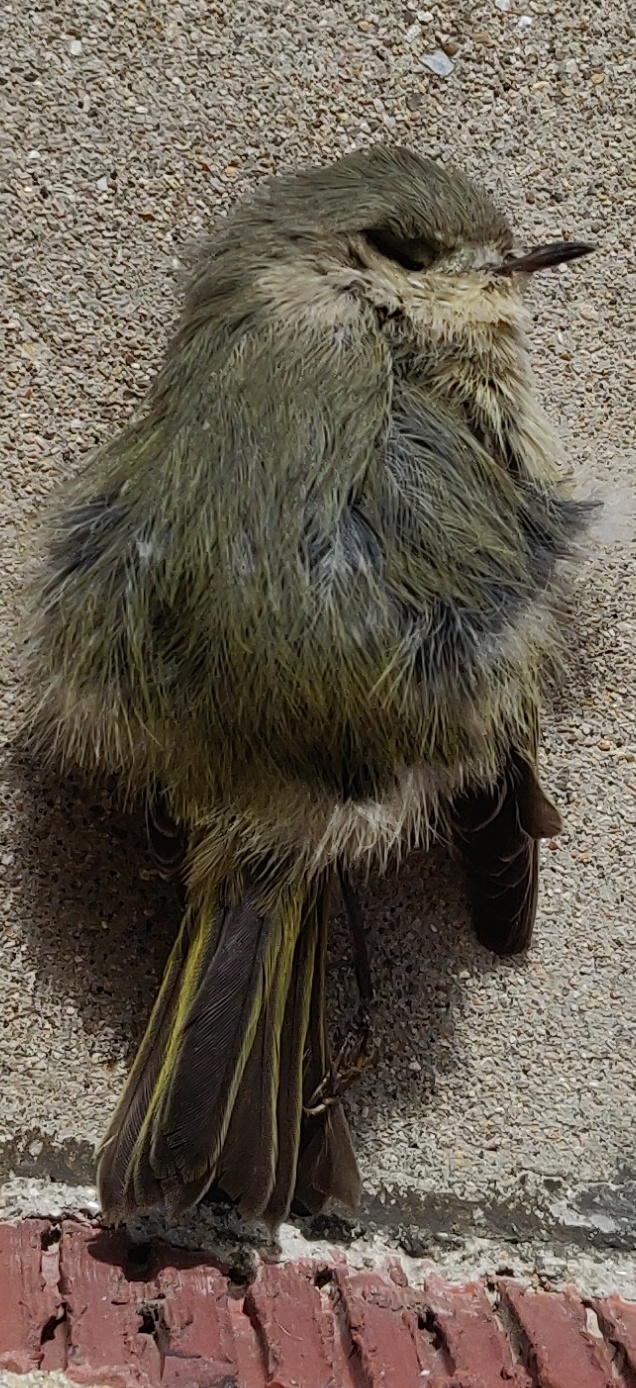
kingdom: Animalia
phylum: Chordata
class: Aves
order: Passeriformes
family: Regulidae
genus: Regulus
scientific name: Regulus calendula
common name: Ruby-crowned kinglet
